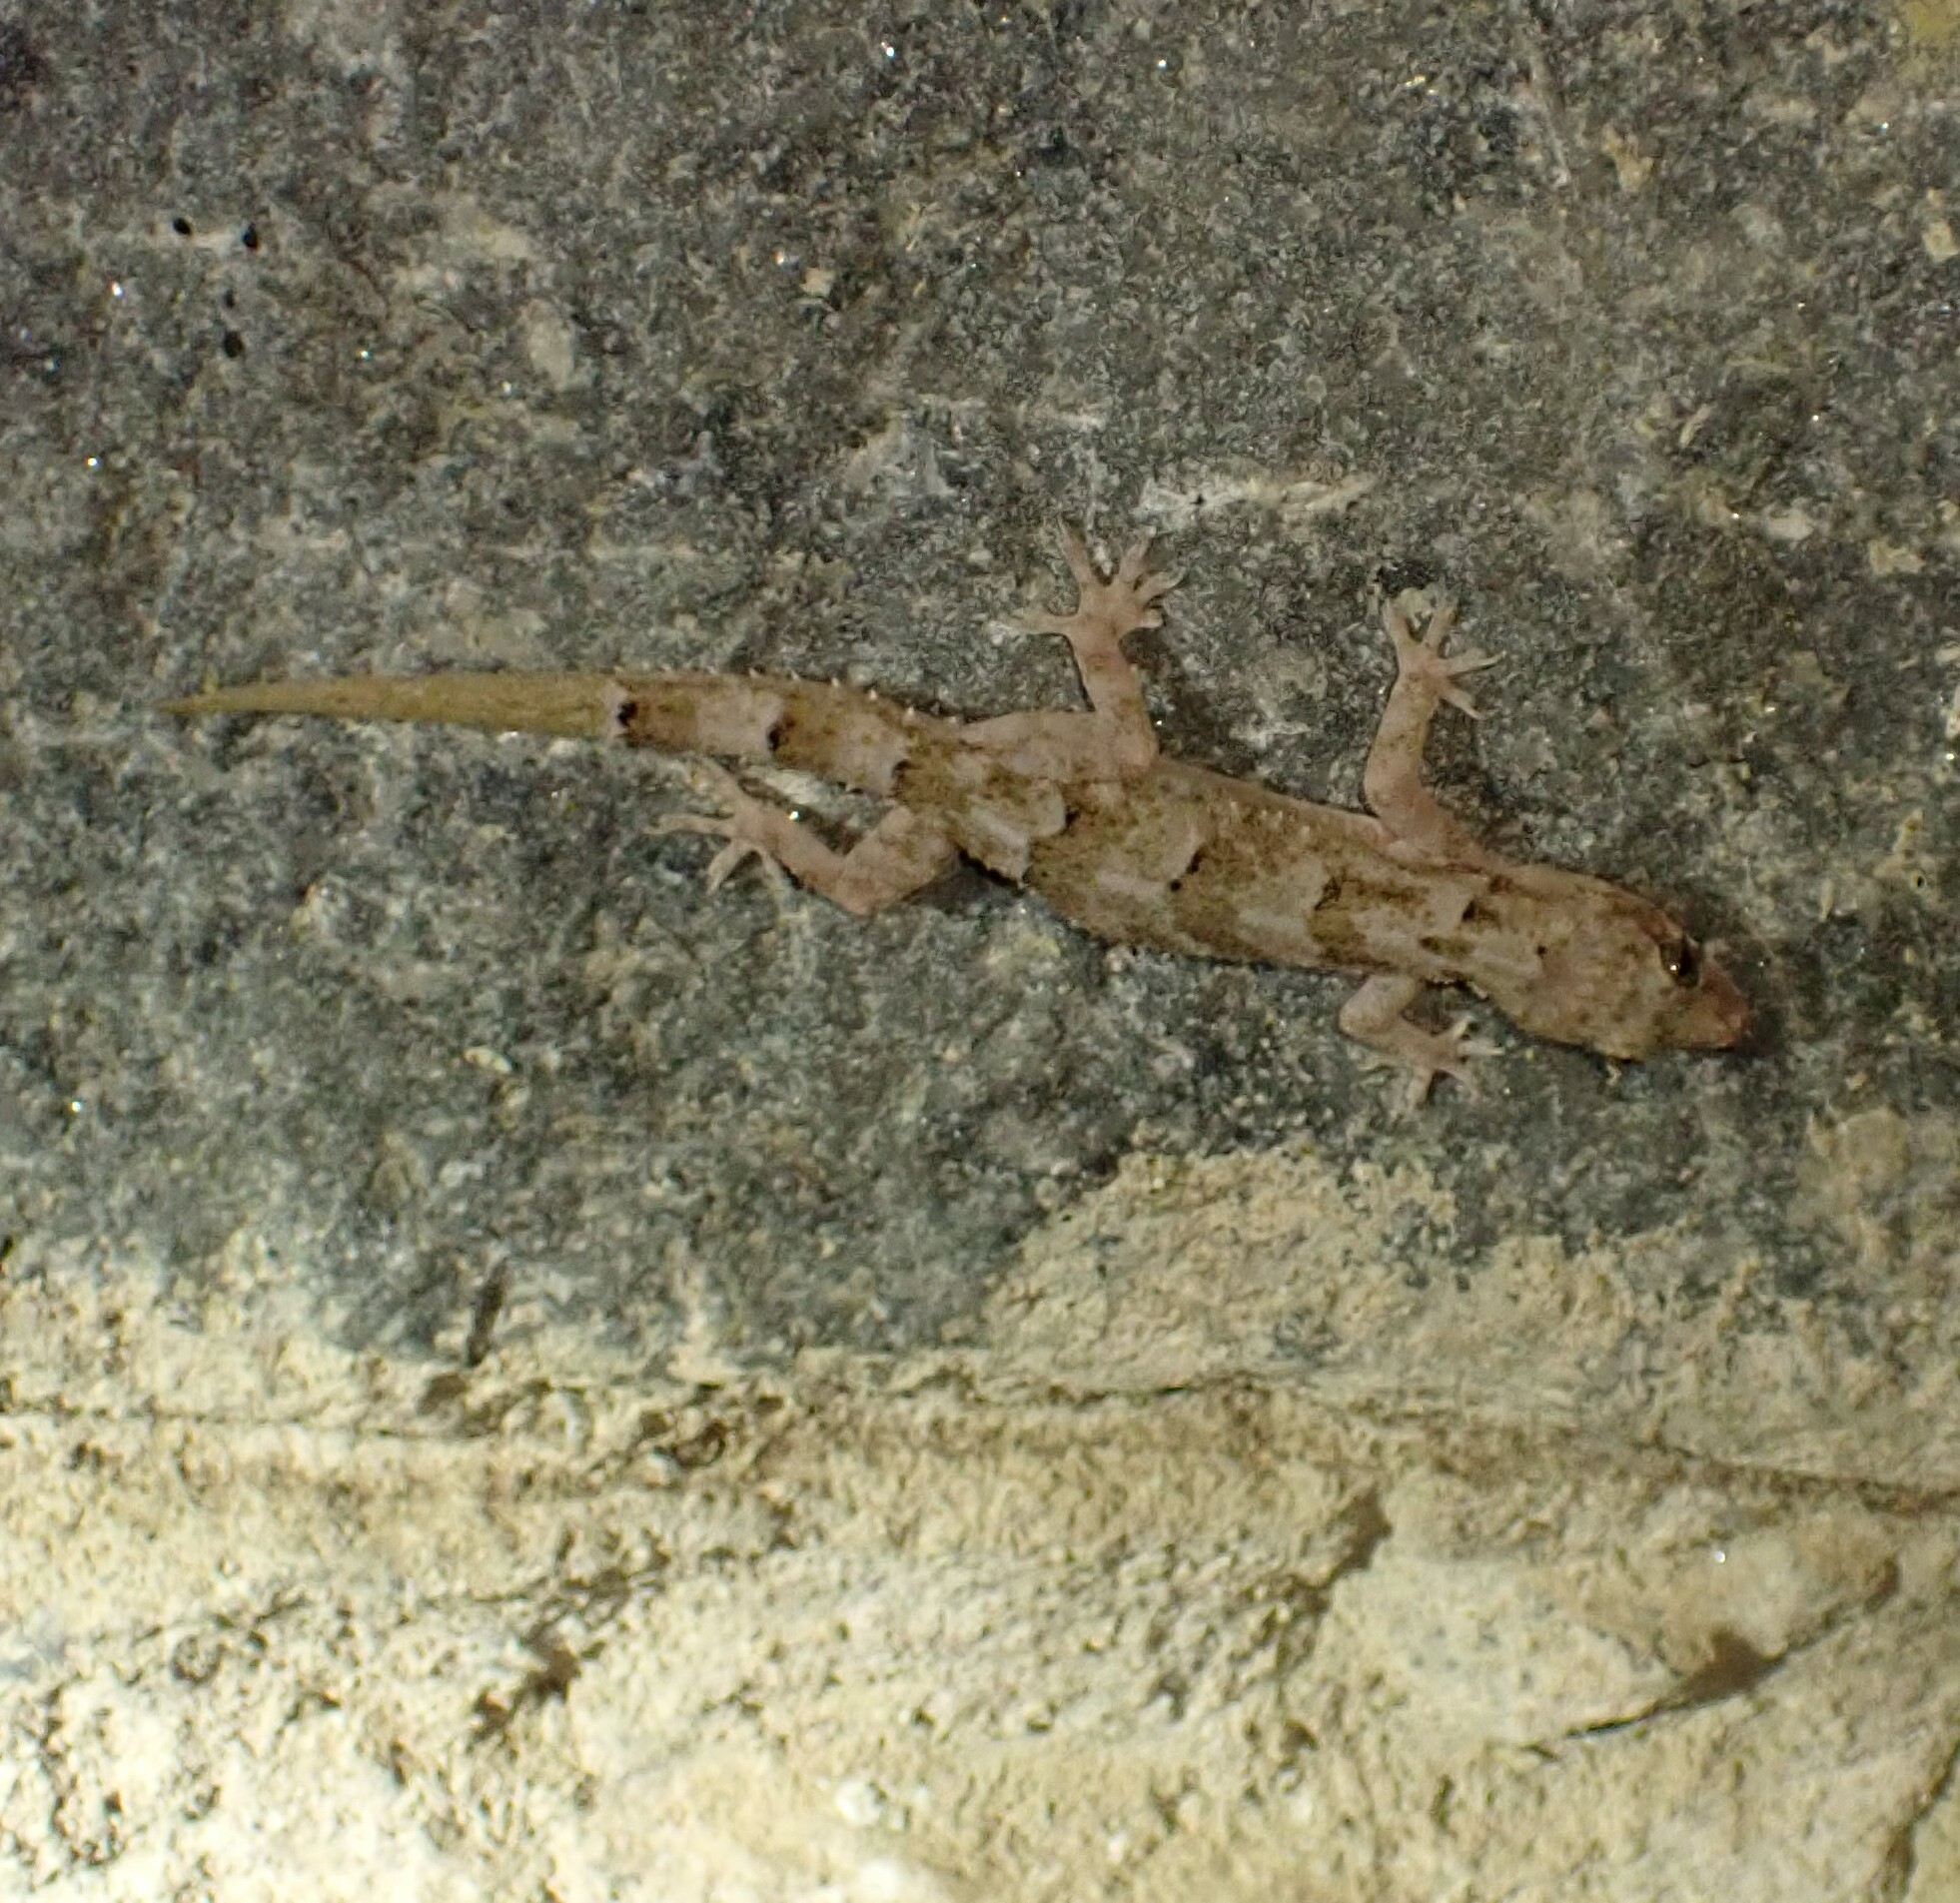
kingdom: Animalia
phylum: Chordata
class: Squamata
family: Gekkonidae
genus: Hemidactylus
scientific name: Hemidactylus mabouia
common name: House gecko
